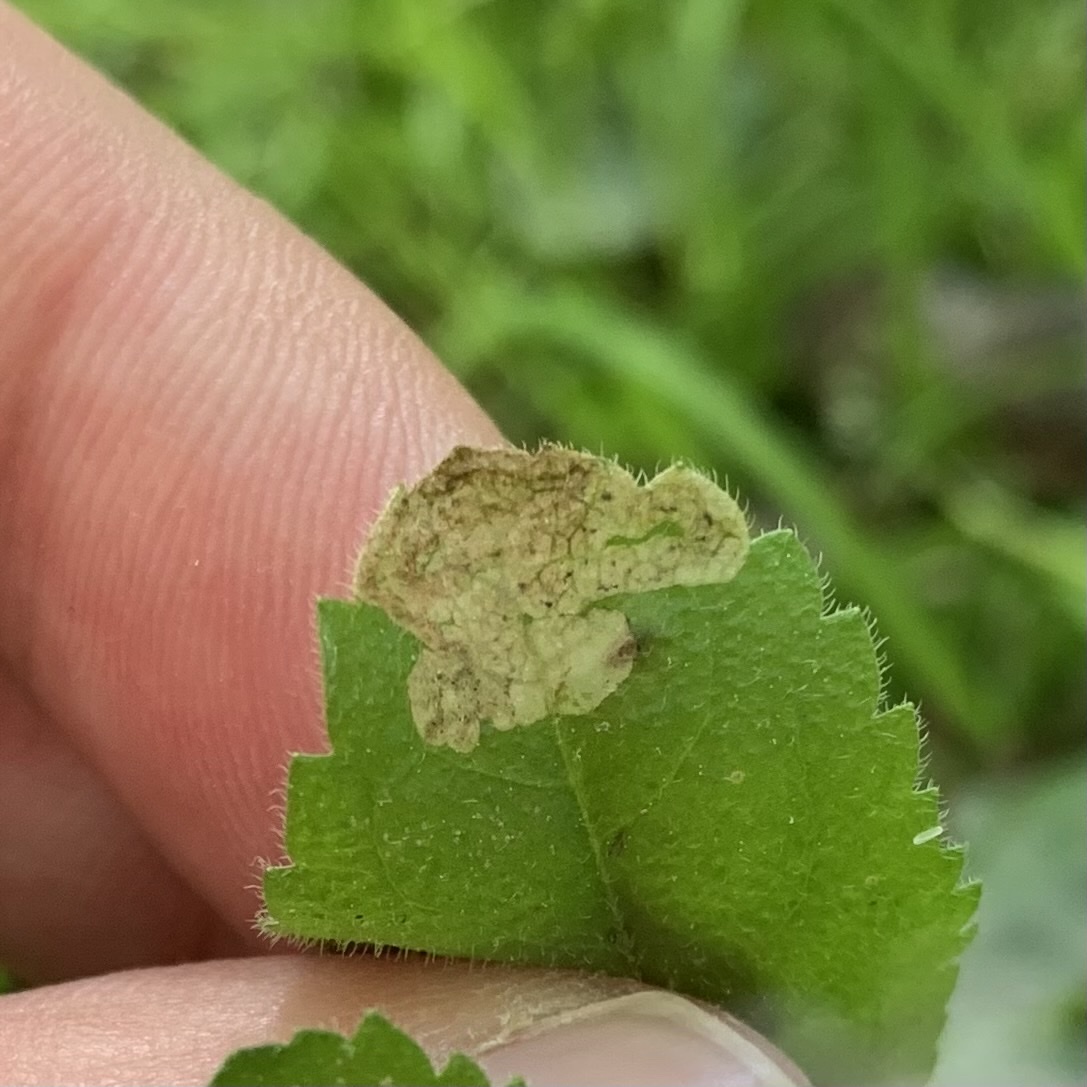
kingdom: Animalia
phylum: Arthropoda
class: Insecta
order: Diptera
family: Agromyzidae
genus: Phytomyza
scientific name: Phytomyza crassiseta
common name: Leaf-miner fly
